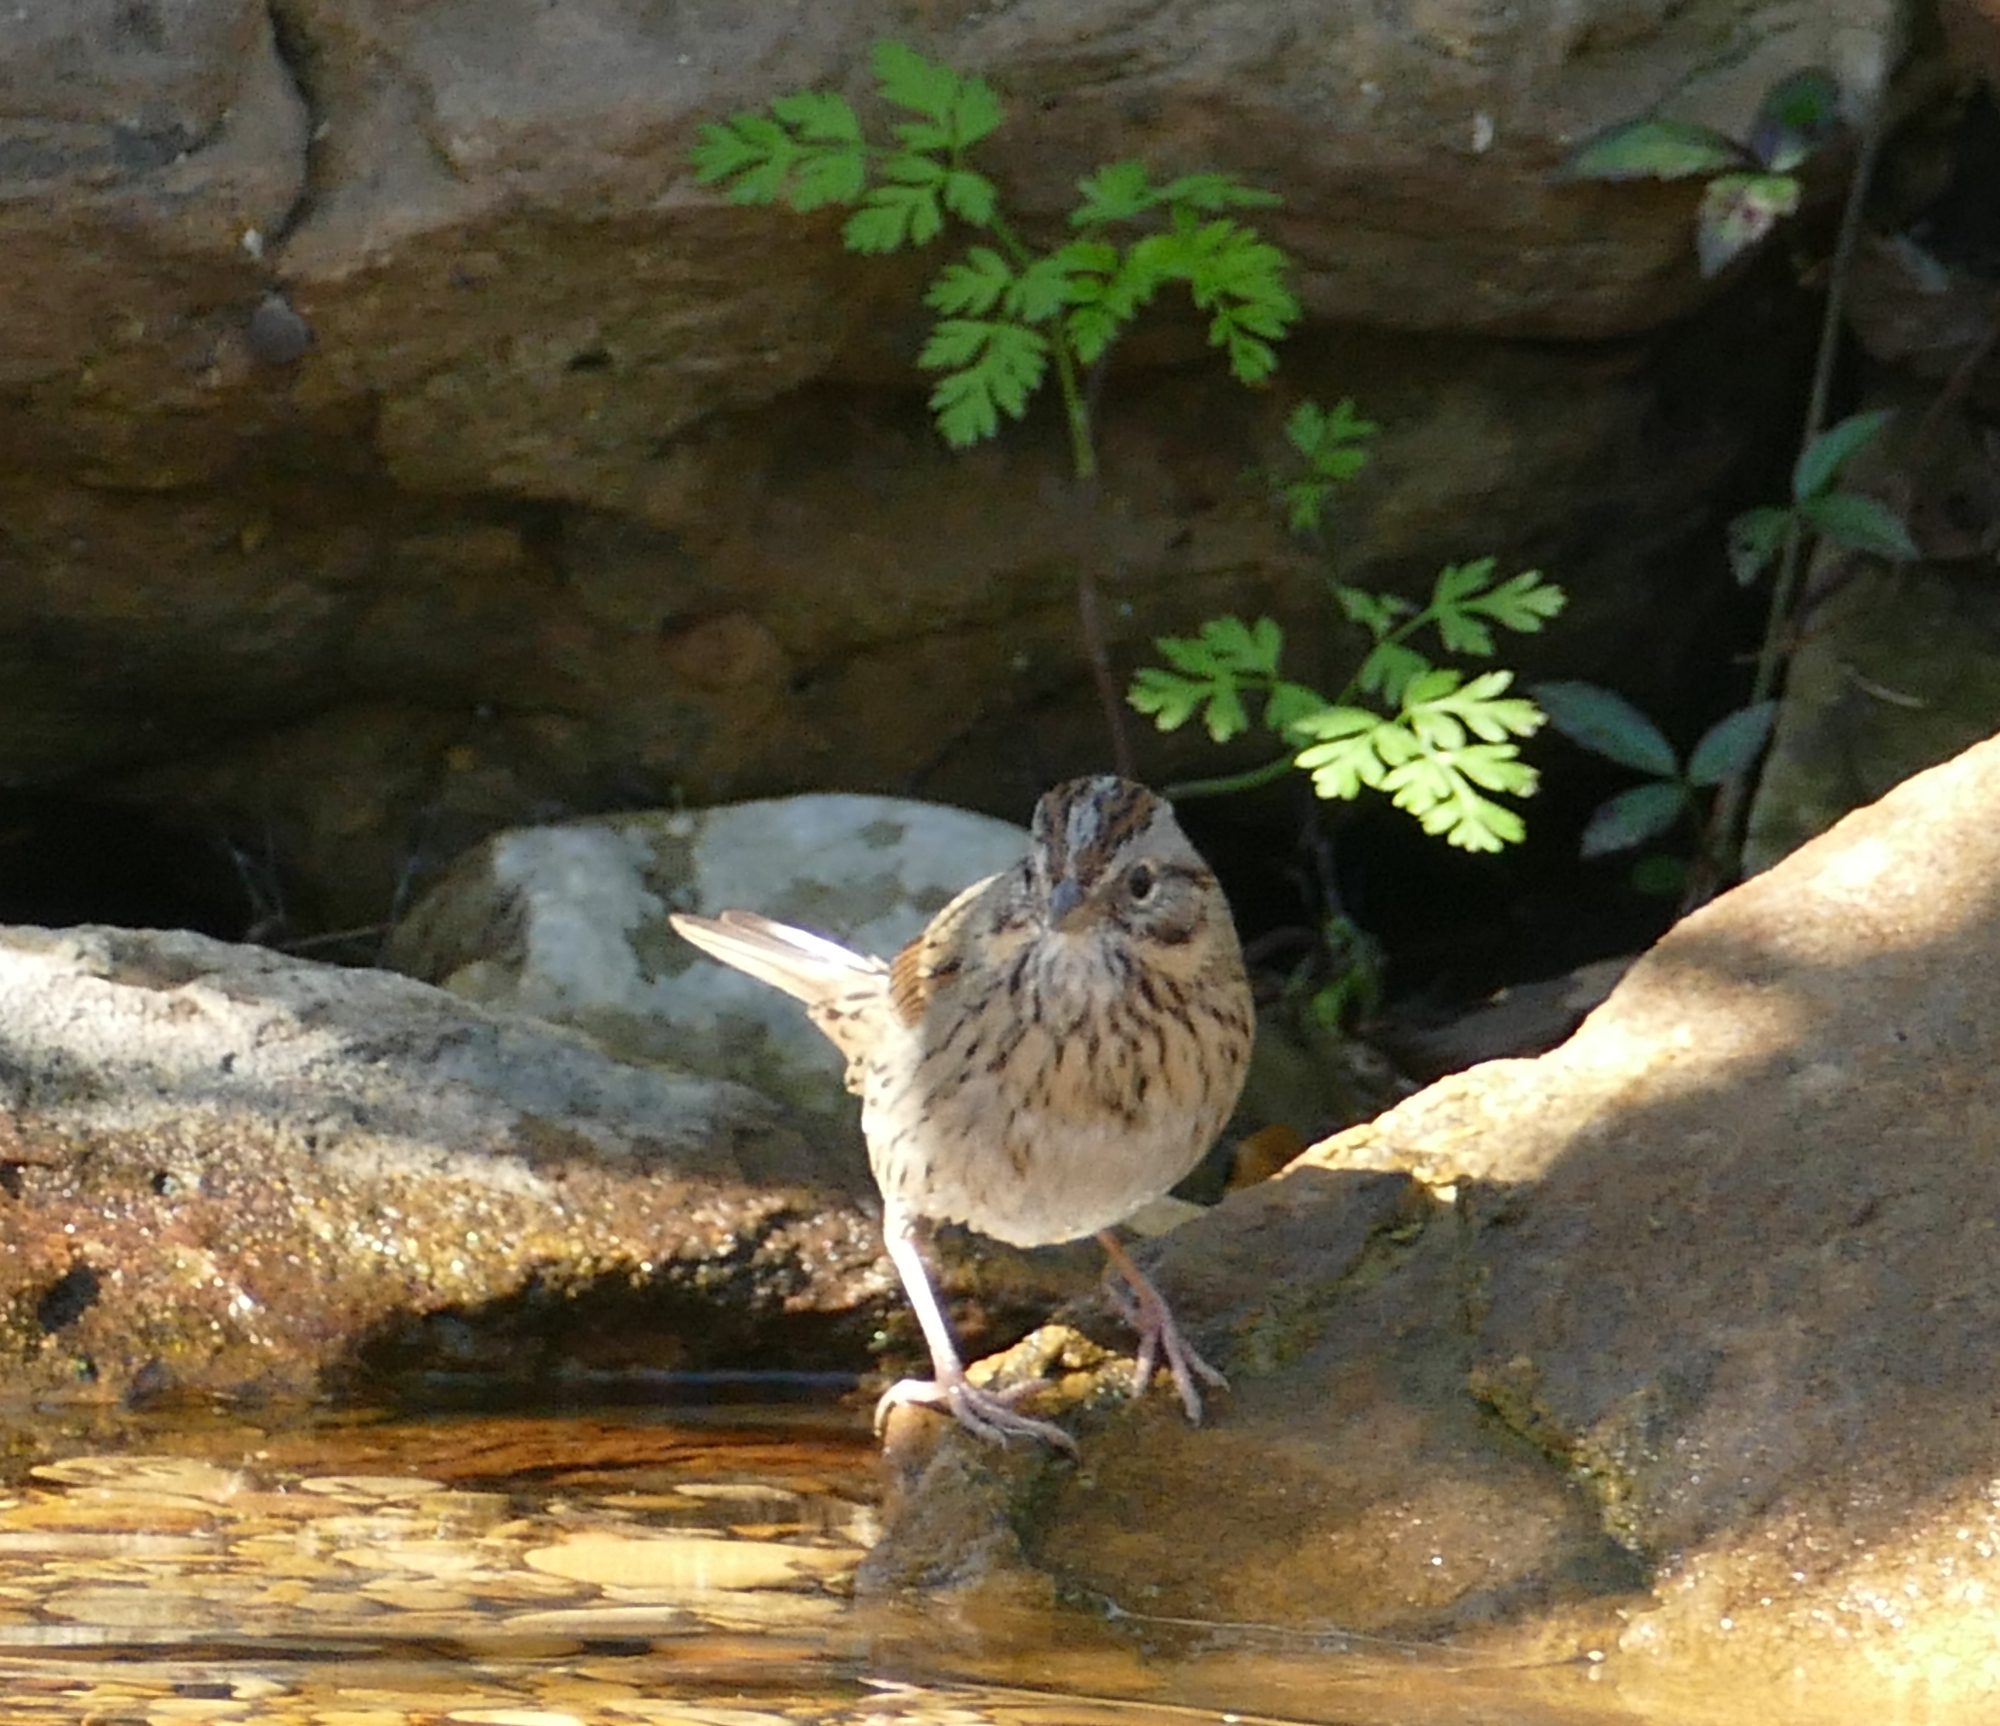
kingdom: Animalia
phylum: Chordata
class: Aves
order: Passeriformes
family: Passerellidae
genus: Melospiza
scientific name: Melospiza lincolnii
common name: Lincoln's sparrow
